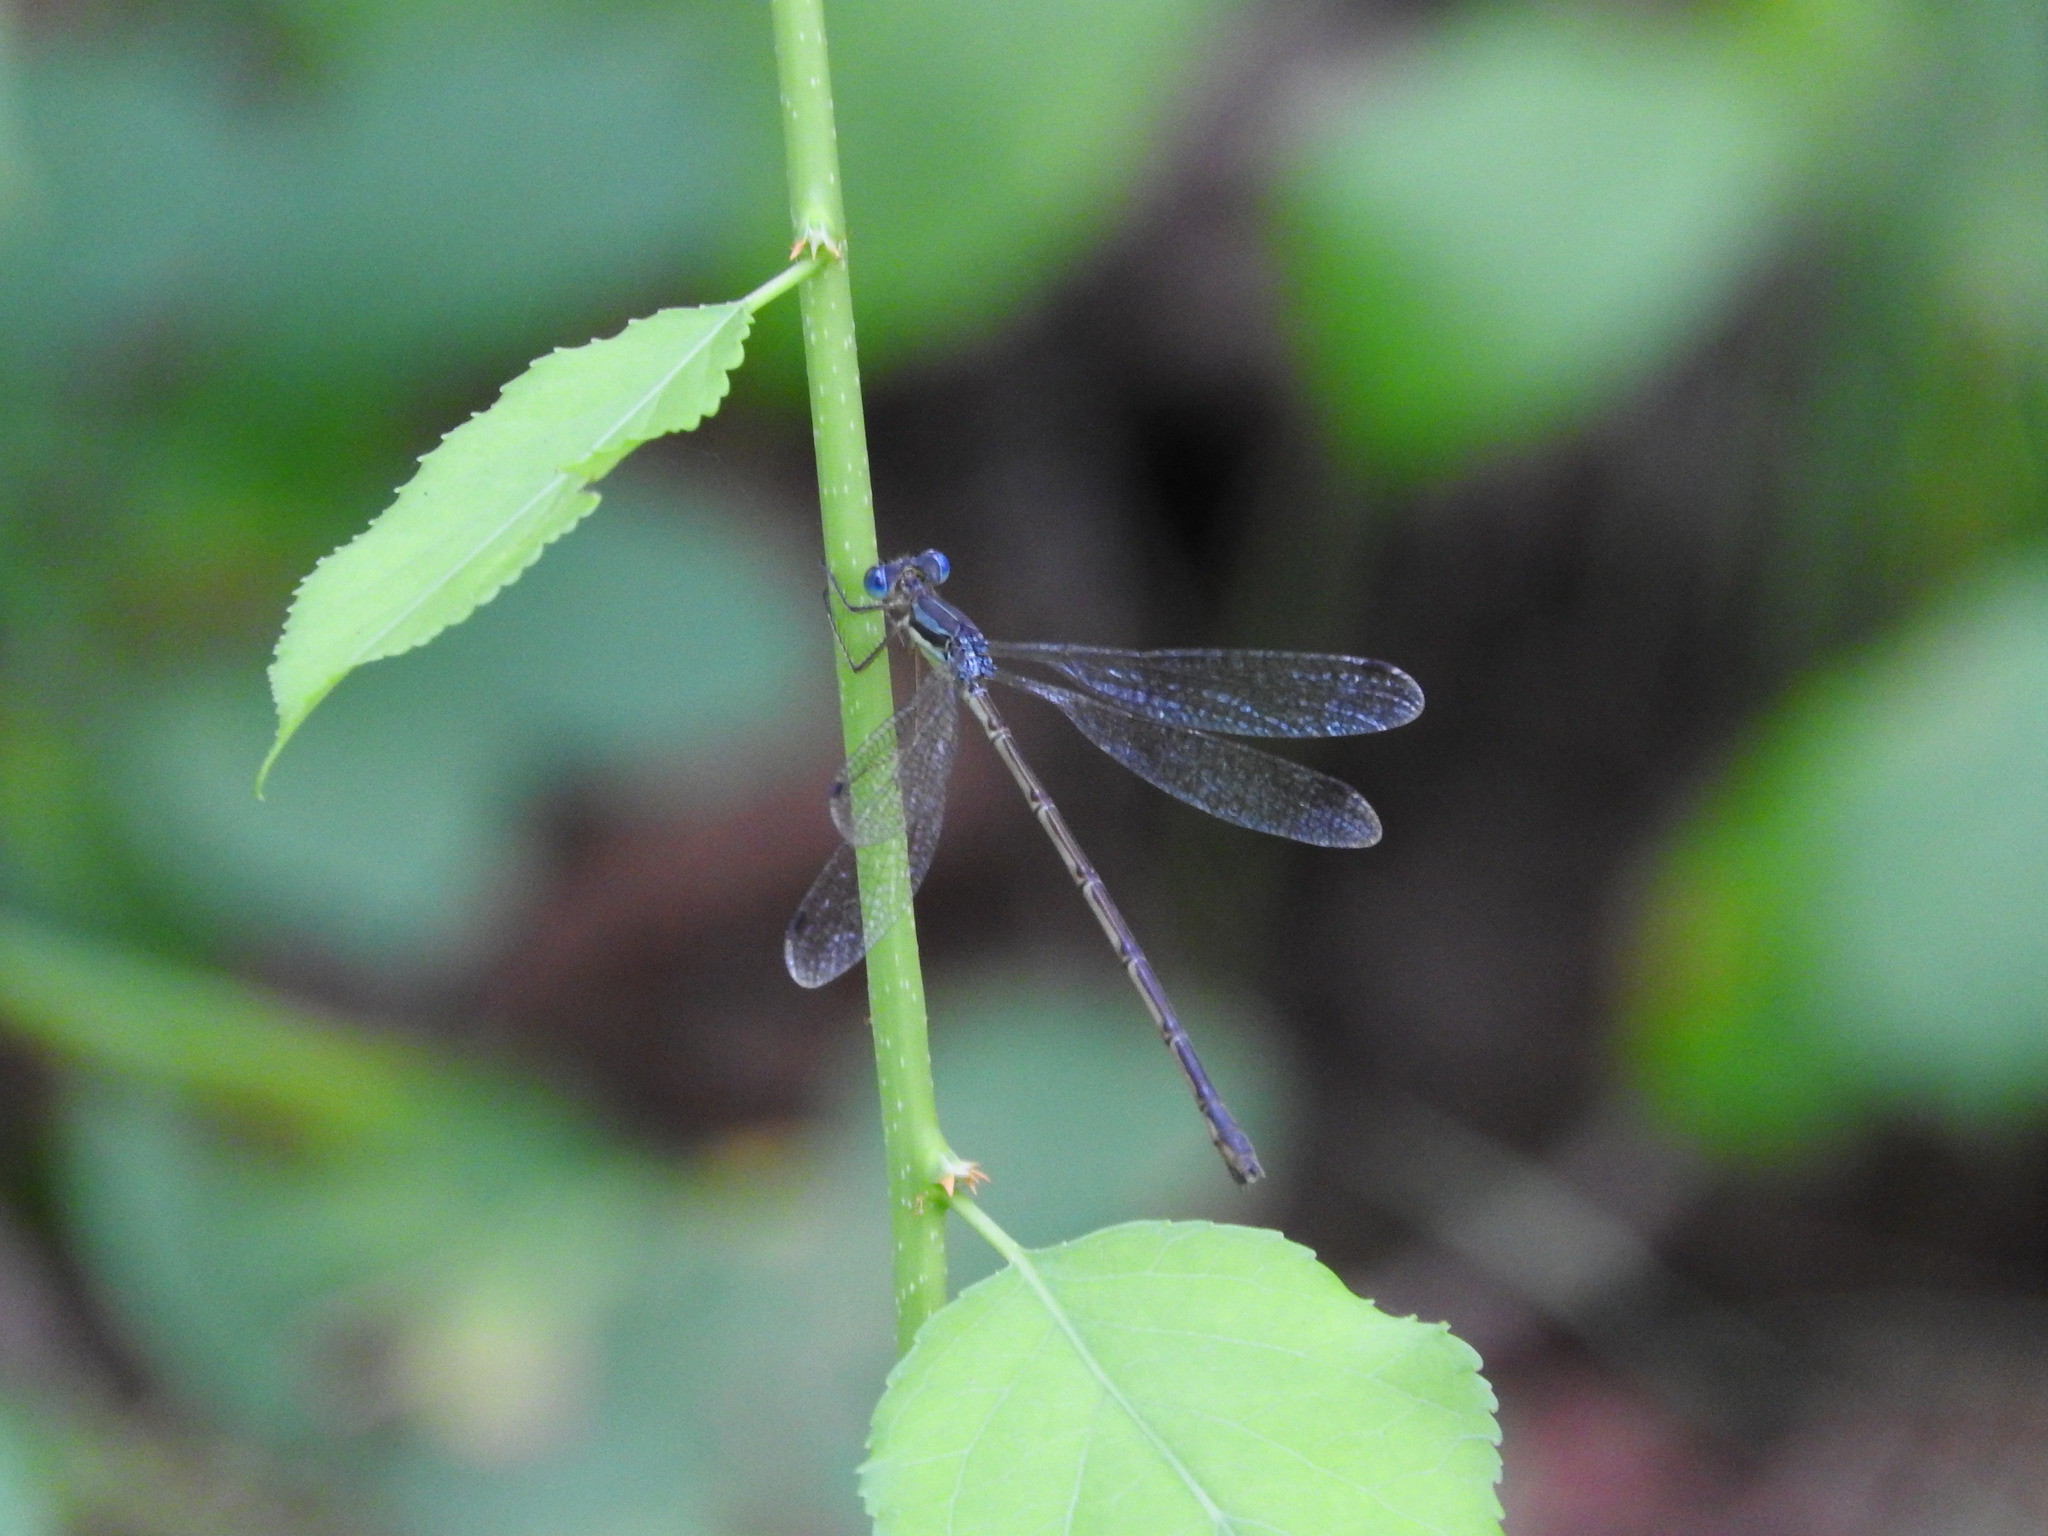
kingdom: Animalia
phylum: Arthropoda
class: Insecta
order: Odonata
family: Lestidae
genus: Lestes
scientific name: Lestes rectangularis
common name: Slender spreadwing
